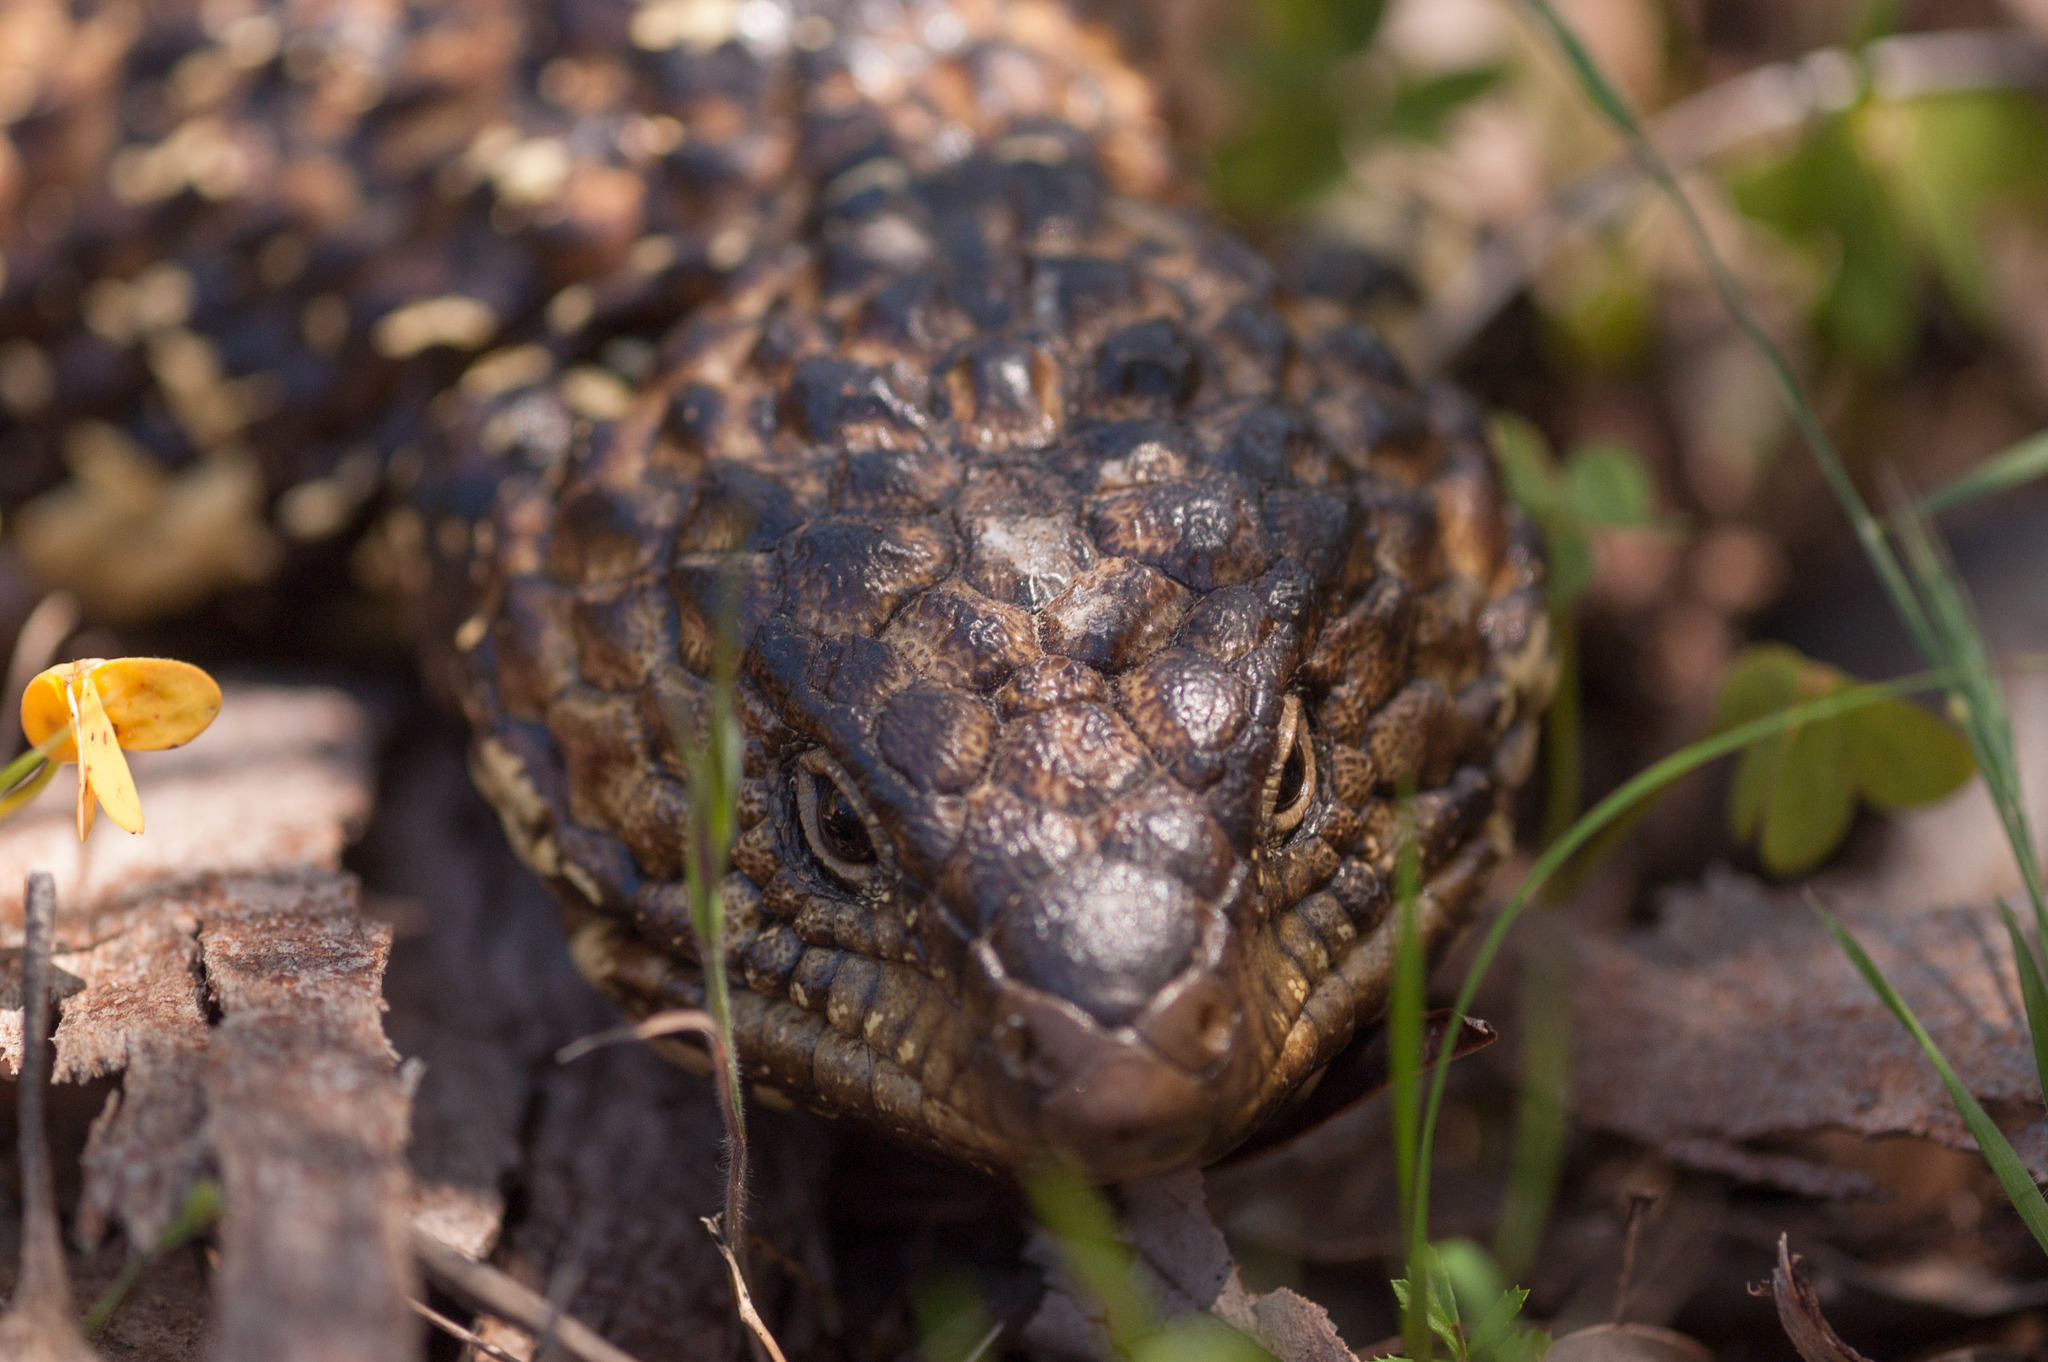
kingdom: Animalia
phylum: Chordata
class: Squamata
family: Scincidae
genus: Tiliqua
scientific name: Tiliqua rugosa
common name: Pinecone lizard
